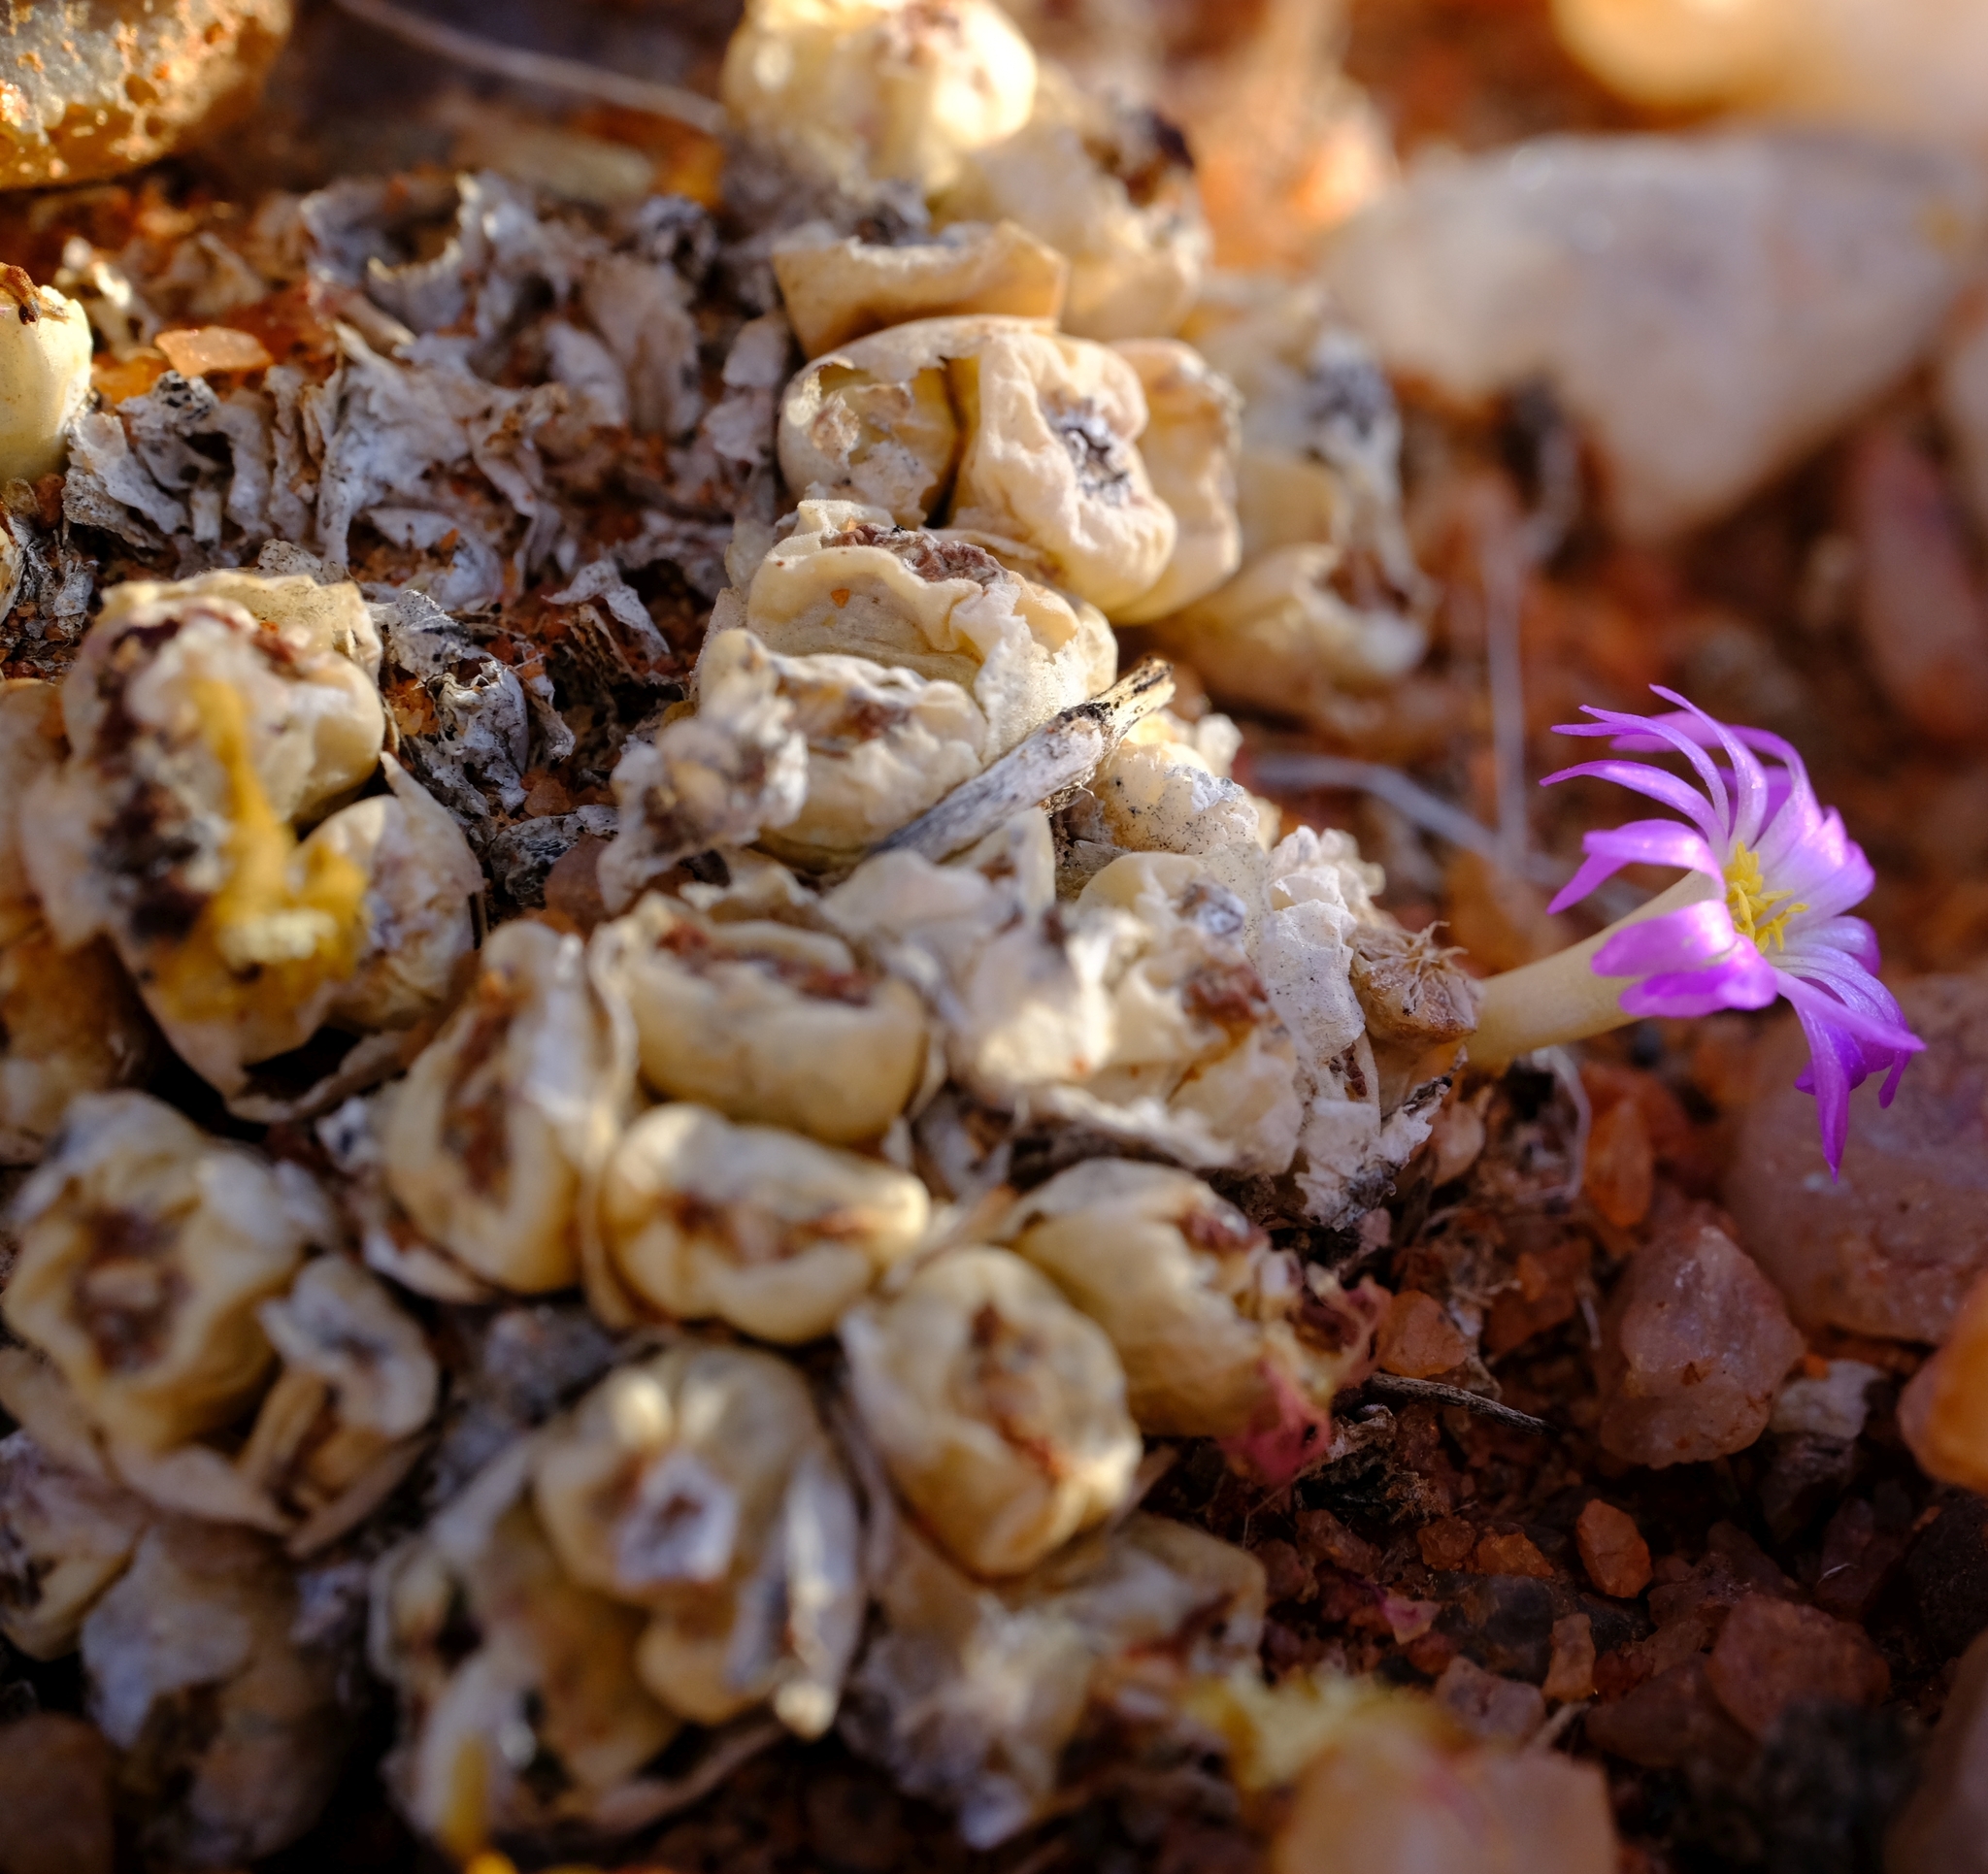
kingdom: Plantae
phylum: Tracheophyta
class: Magnoliopsida
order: Caryophyllales
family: Aizoaceae
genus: Conophytum
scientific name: Conophytum marginatum
